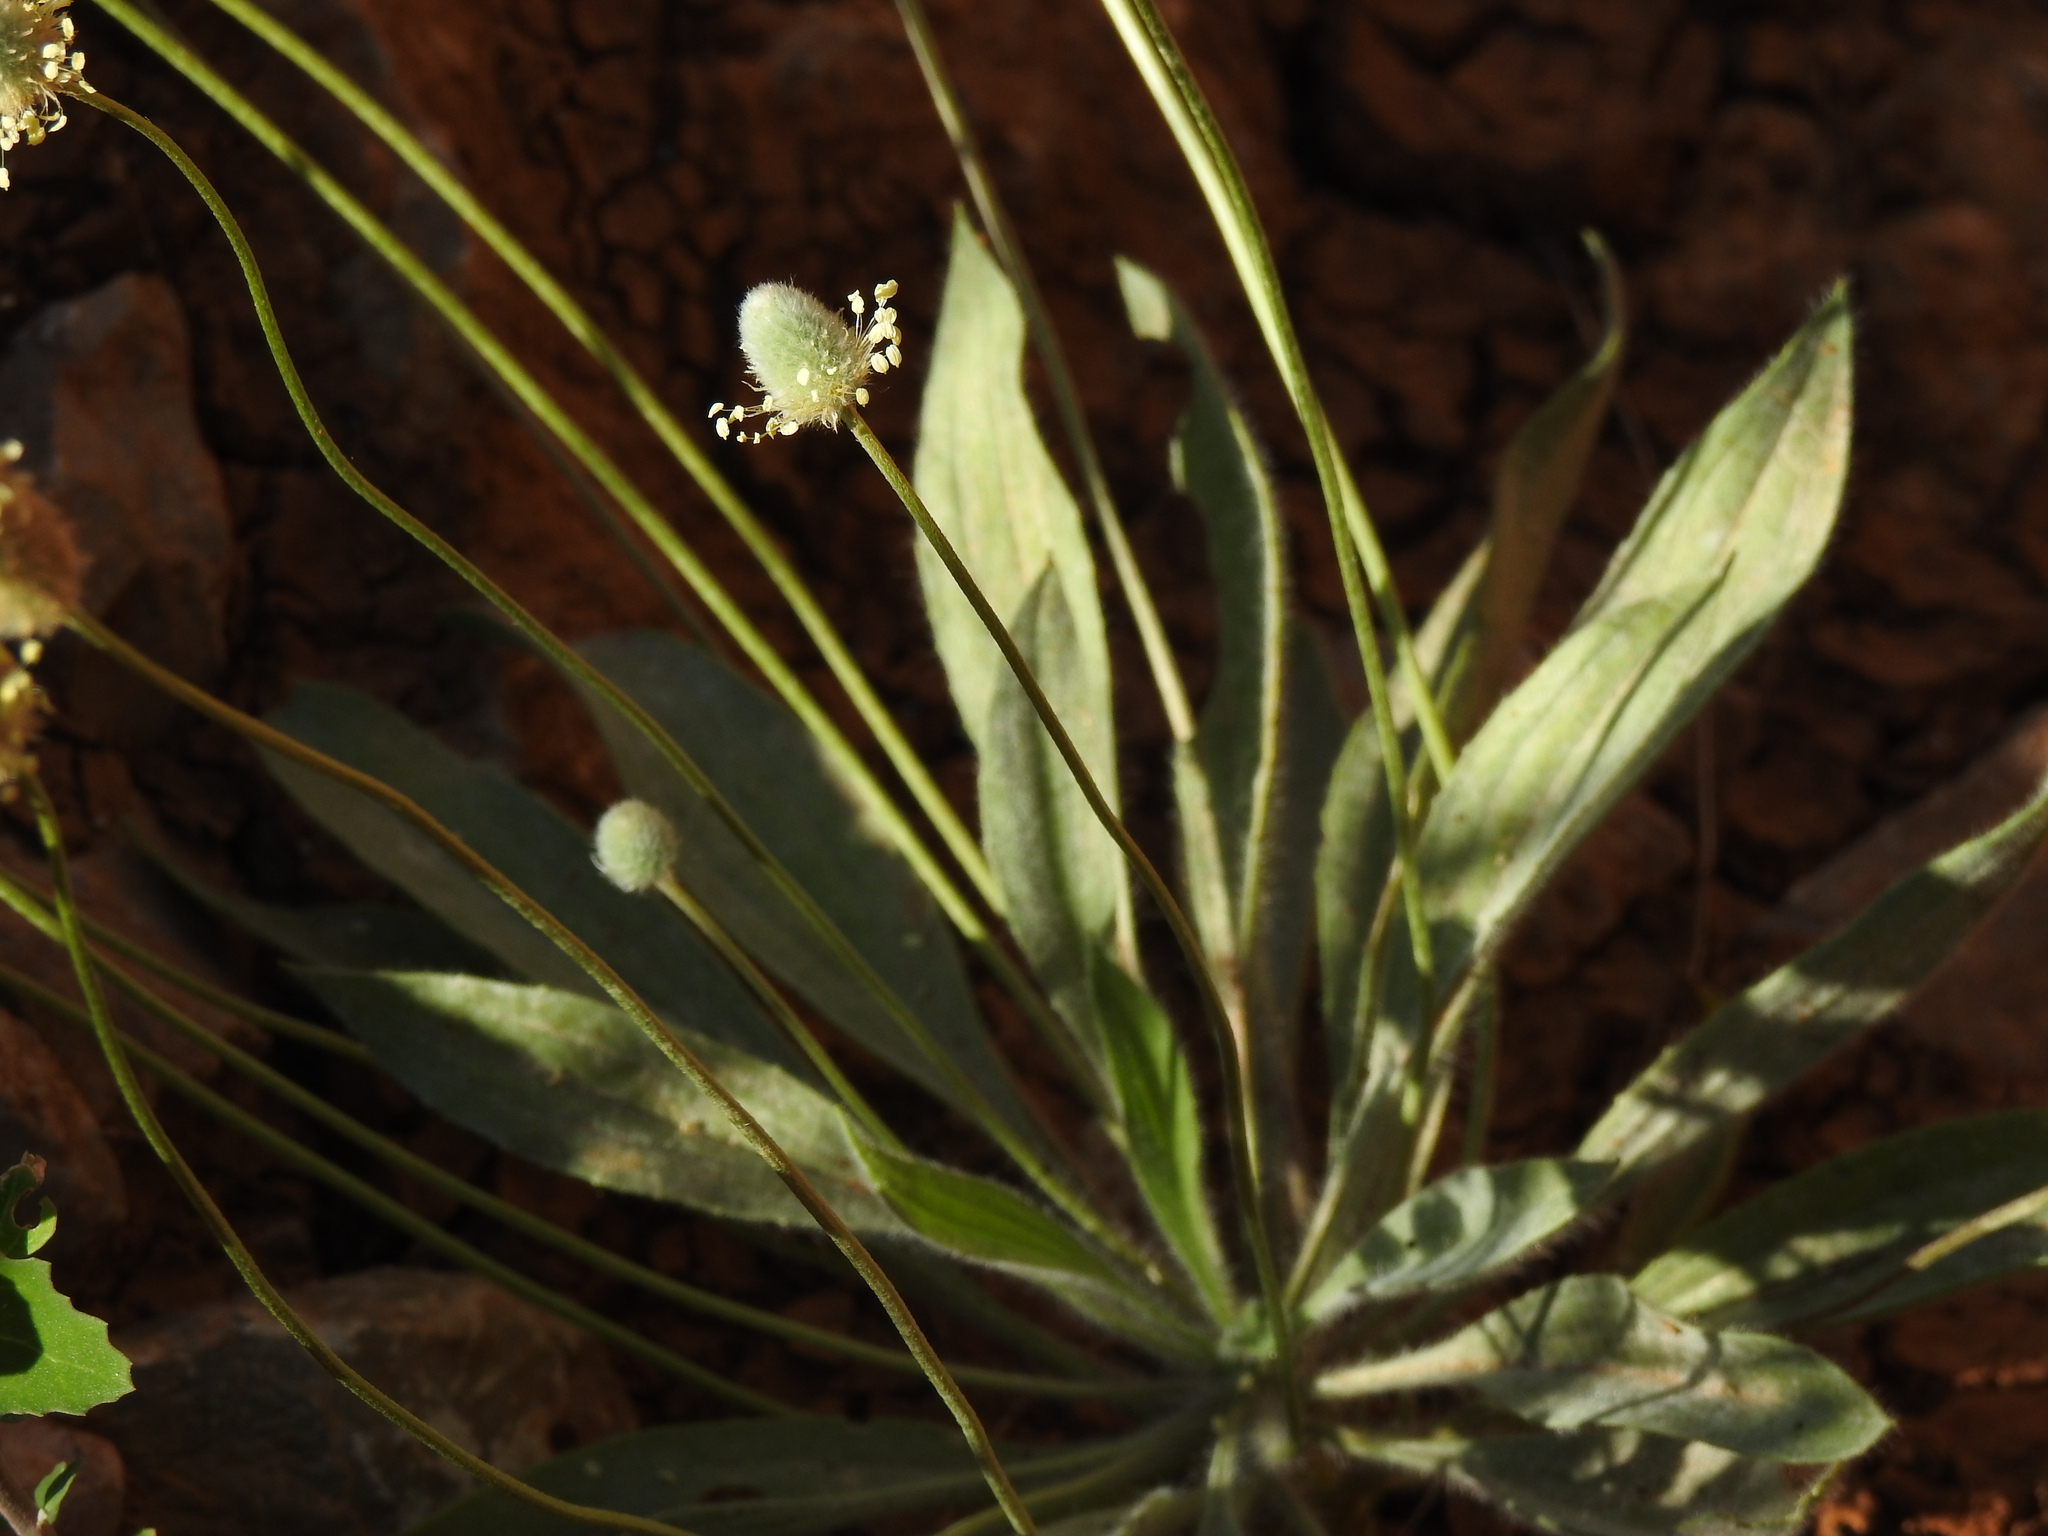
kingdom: Plantae
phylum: Tracheophyta
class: Magnoliopsida
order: Lamiales
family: Plantaginaceae
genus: Plantago
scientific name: Plantago lagopus
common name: Hare-foot plantain
